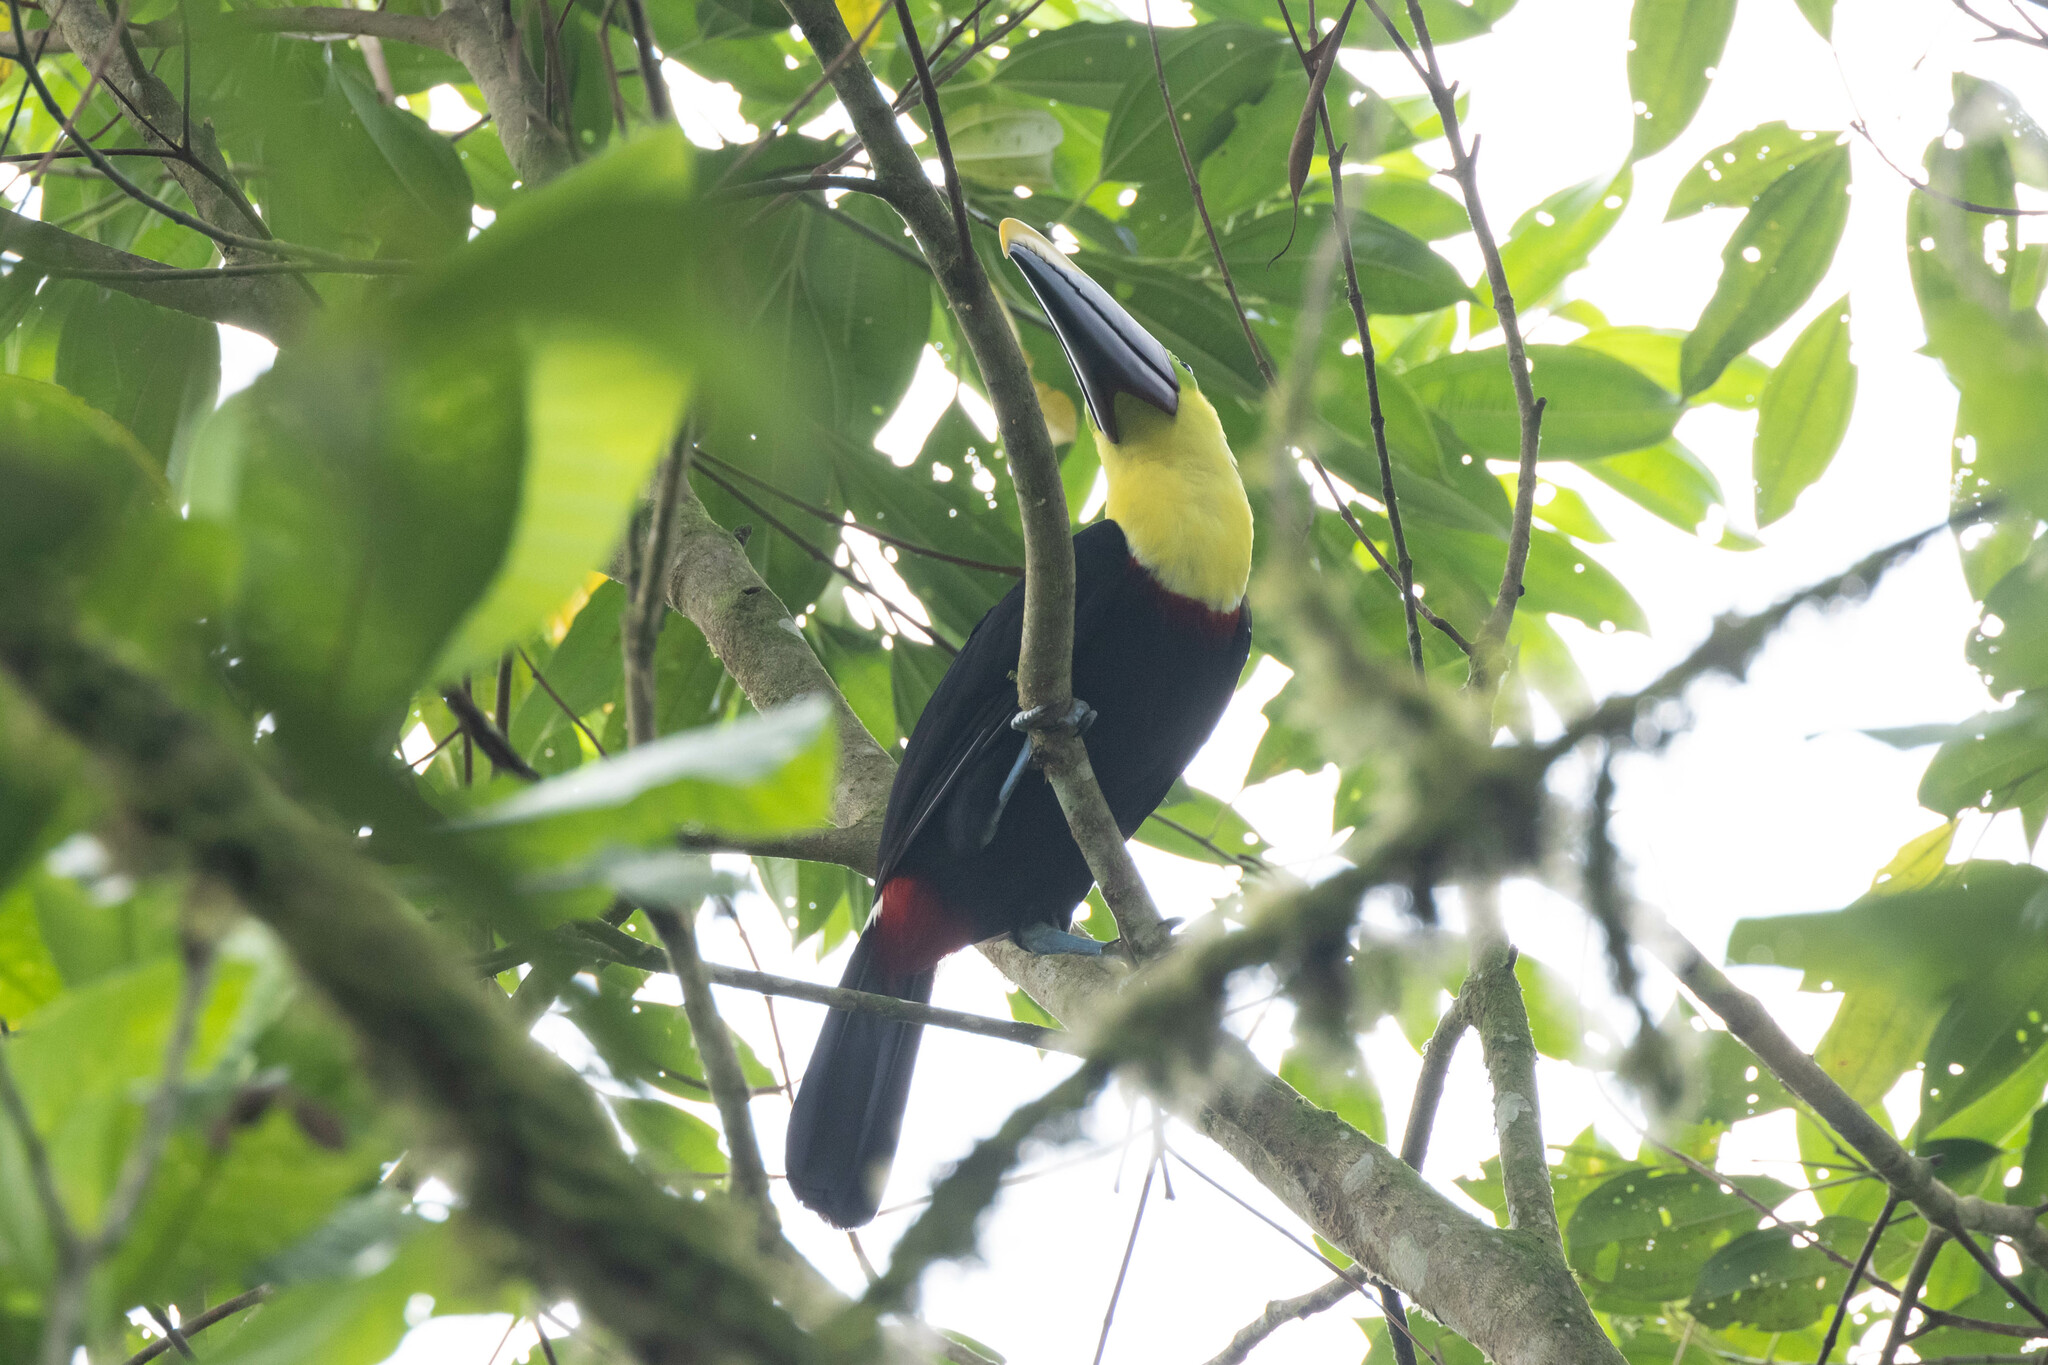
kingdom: Animalia
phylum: Chordata
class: Aves
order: Piciformes
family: Ramphastidae
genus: Ramphastos
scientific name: Ramphastos brevis
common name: Choco toucan
